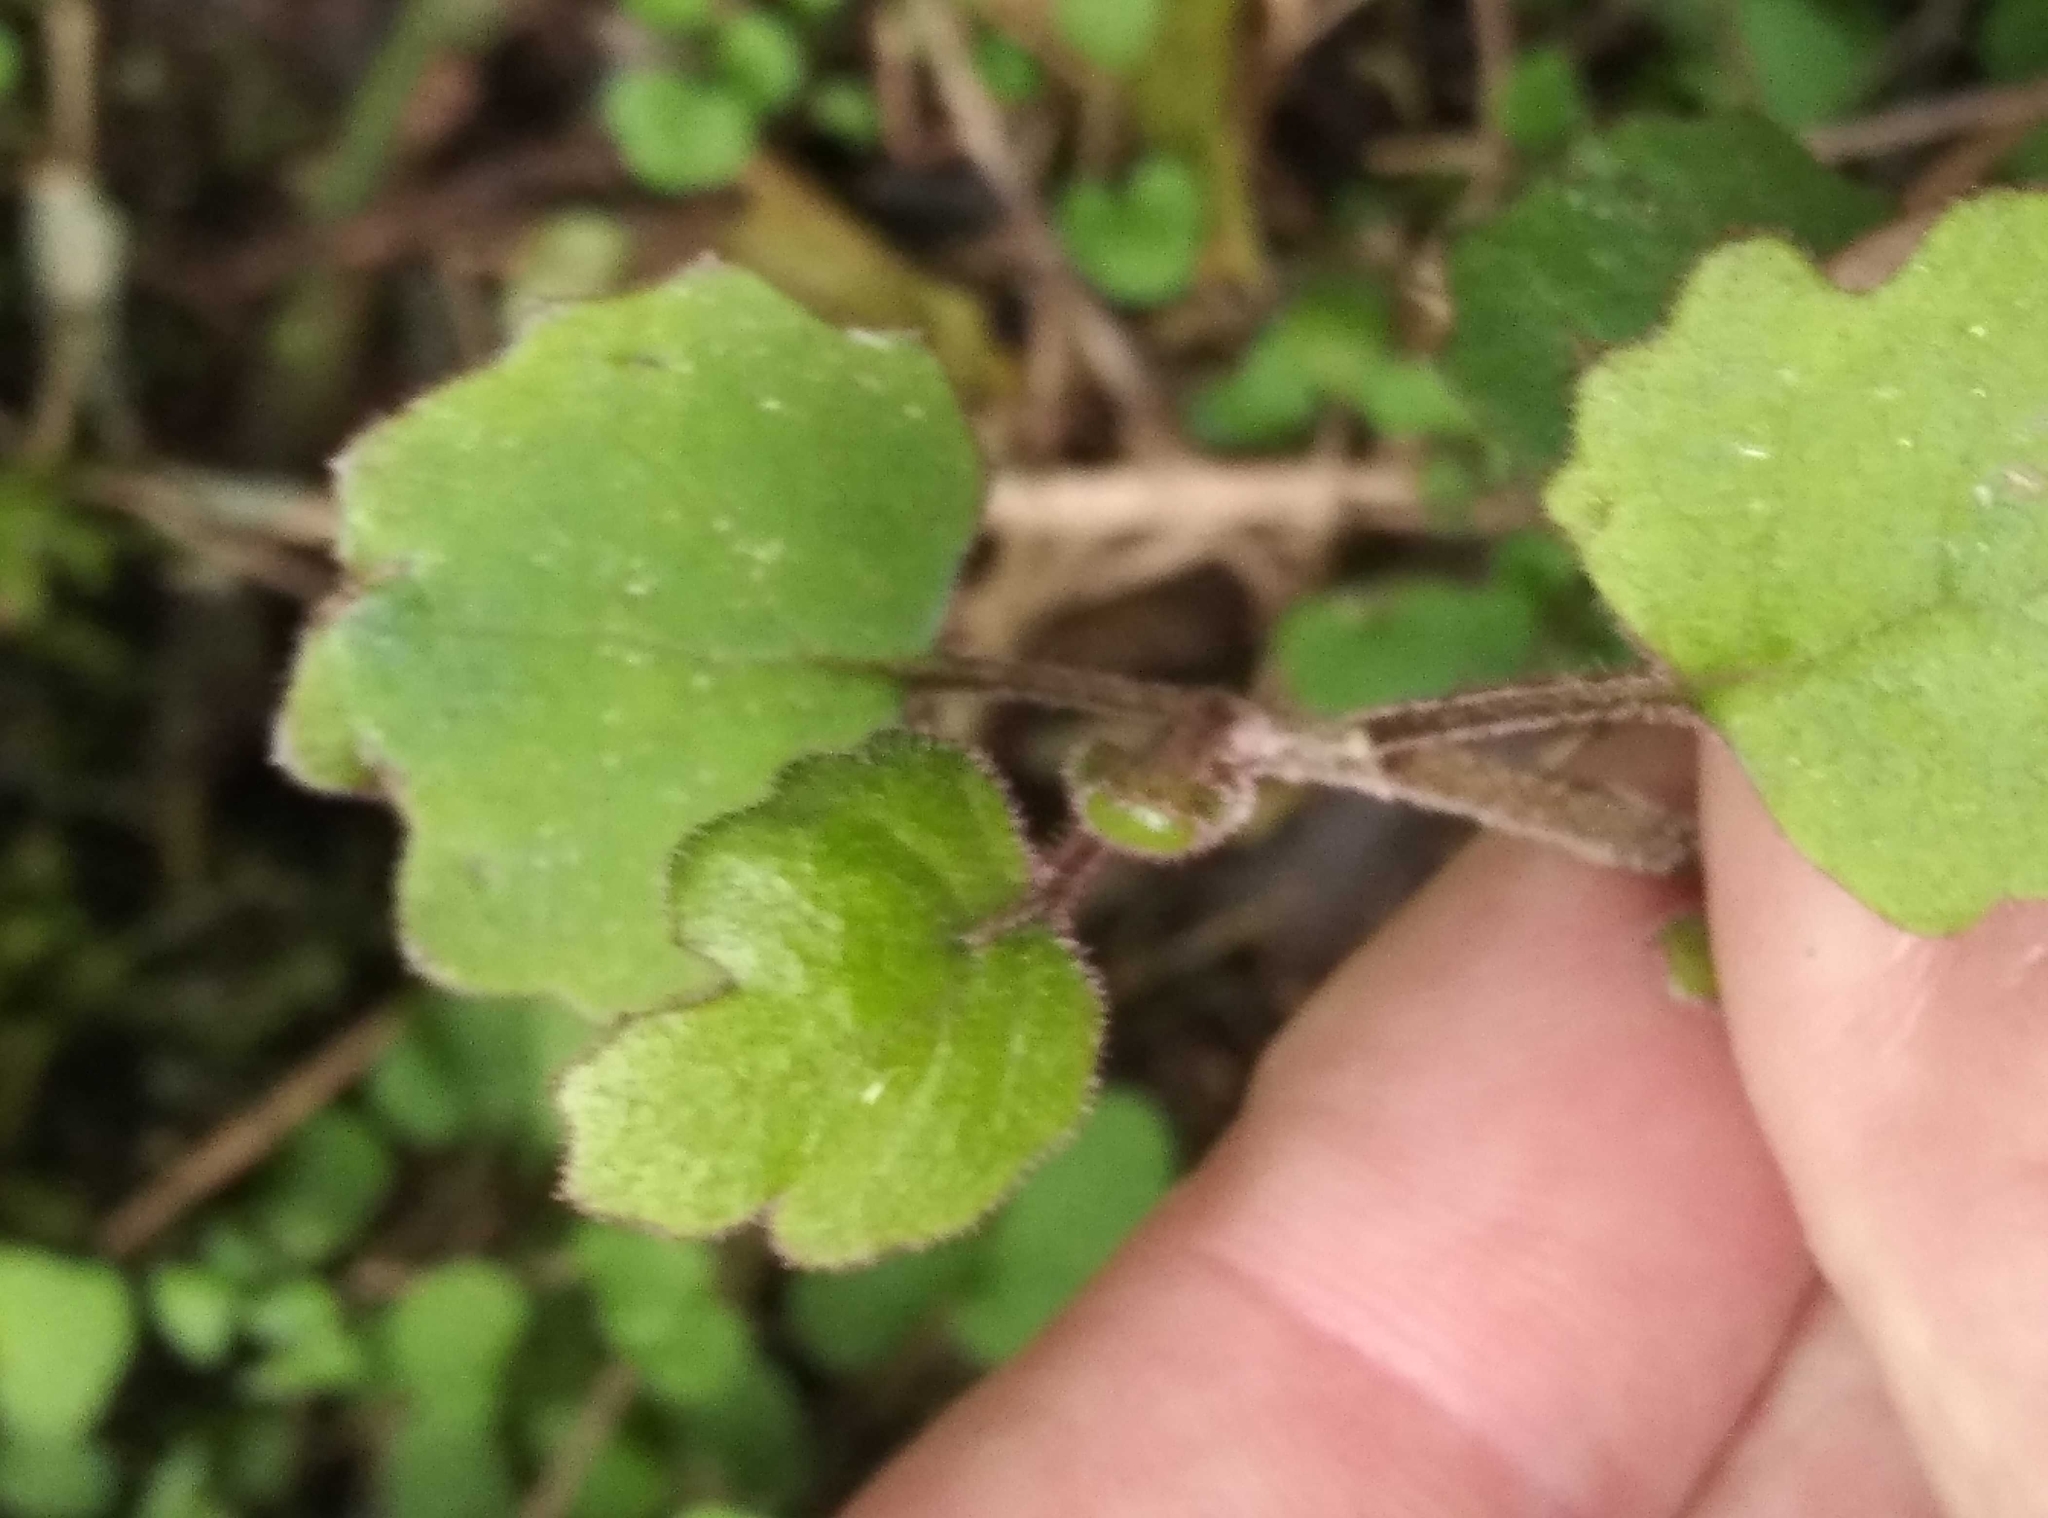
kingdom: Plantae
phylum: Tracheophyta
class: Magnoliopsida
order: Asterales
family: Asteraceae
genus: Brachyglottis
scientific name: Brachyglottis sciadophila
